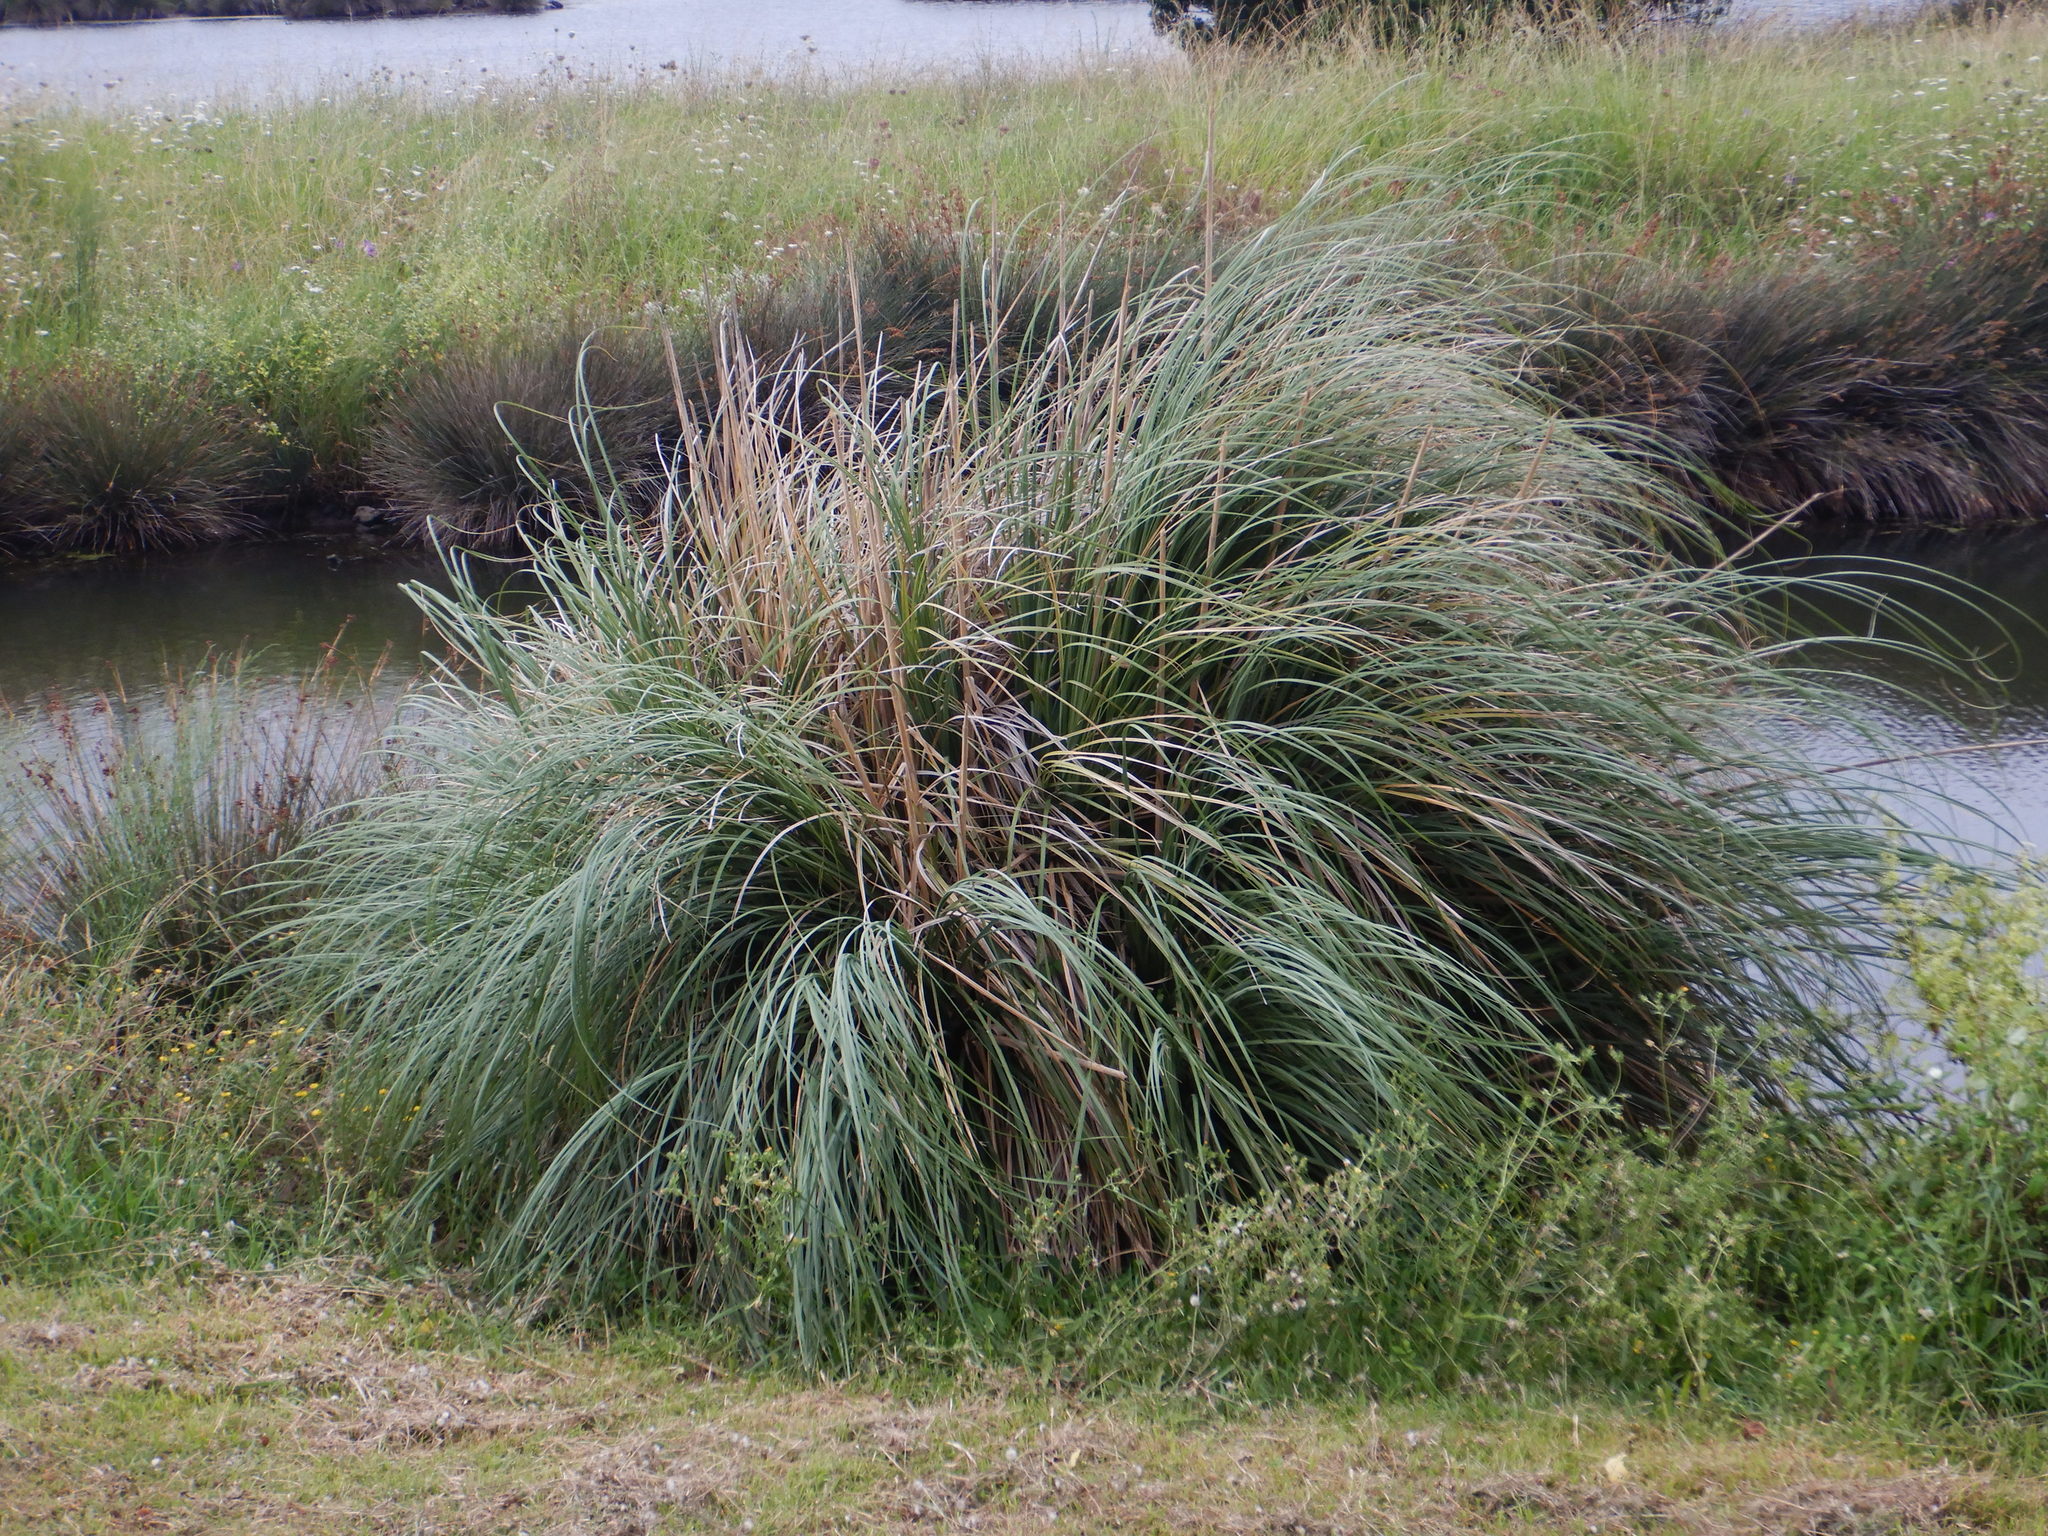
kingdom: Plantae
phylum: Tracheophyta
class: Liliopsida
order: Poales
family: Poaceae
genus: Cortaderia
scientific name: Cortaderia selloana
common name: Uruguayan pampas grass
